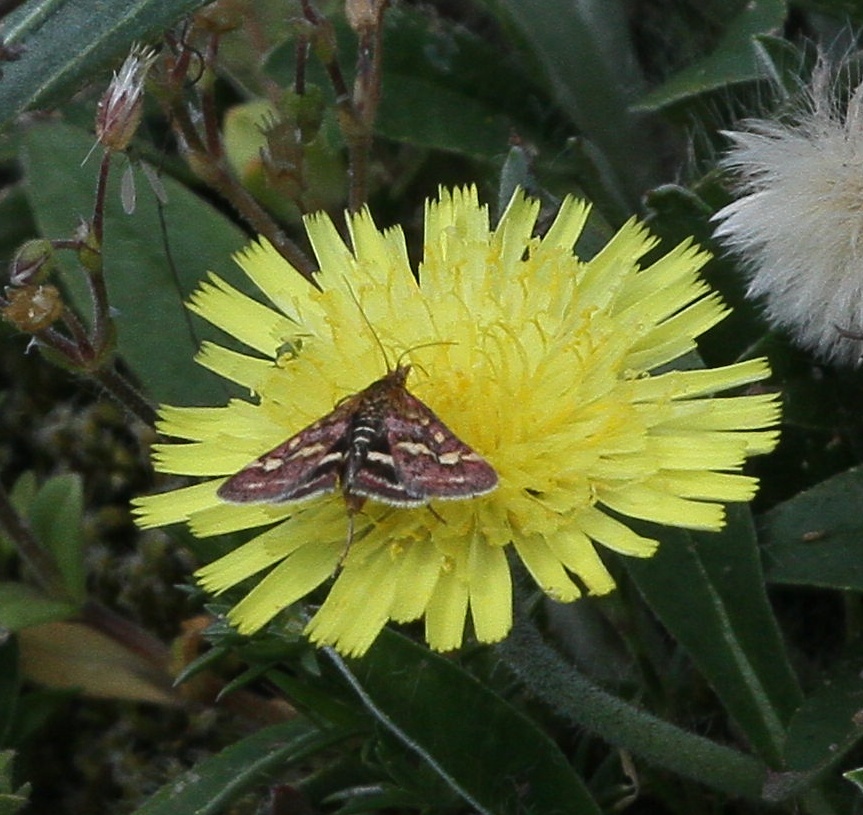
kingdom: Animalia
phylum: Arthropoda
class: Insecta
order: Lepidoptera
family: Crambidae
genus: Pyrausta
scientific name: Pyrausta purpuralis
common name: Common purple & gold
